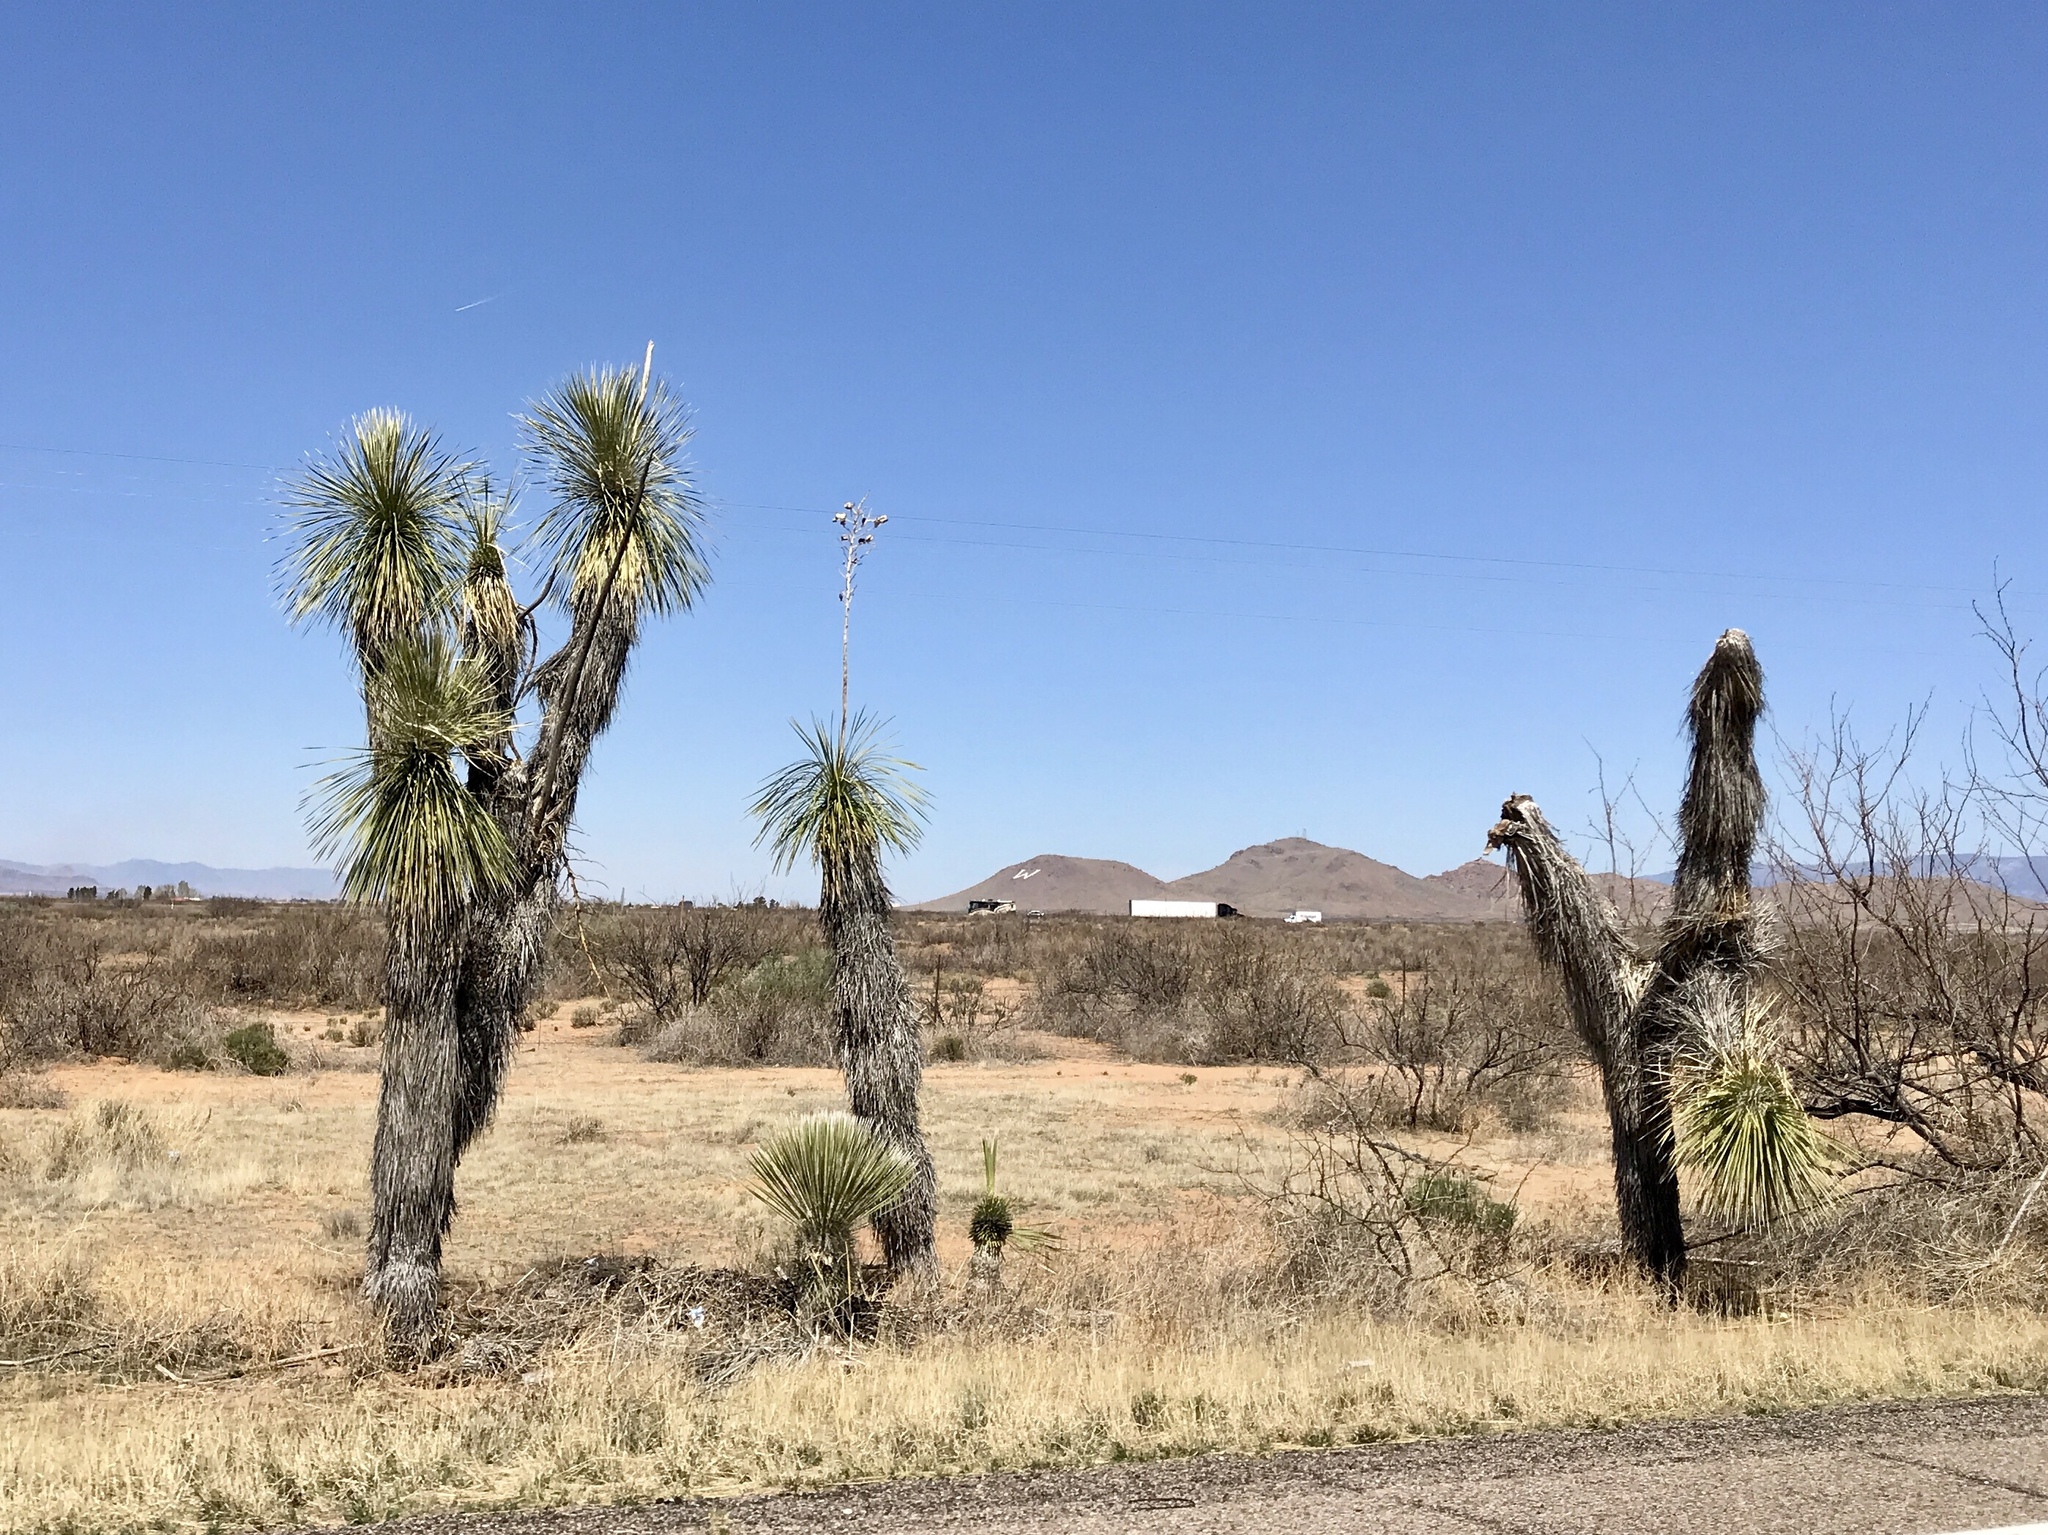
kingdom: Plantae
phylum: Tracheophyta
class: Liliopsida
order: Asparagales
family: Asparagaceae
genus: Yucca
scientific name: Yucca elata
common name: Palmella
